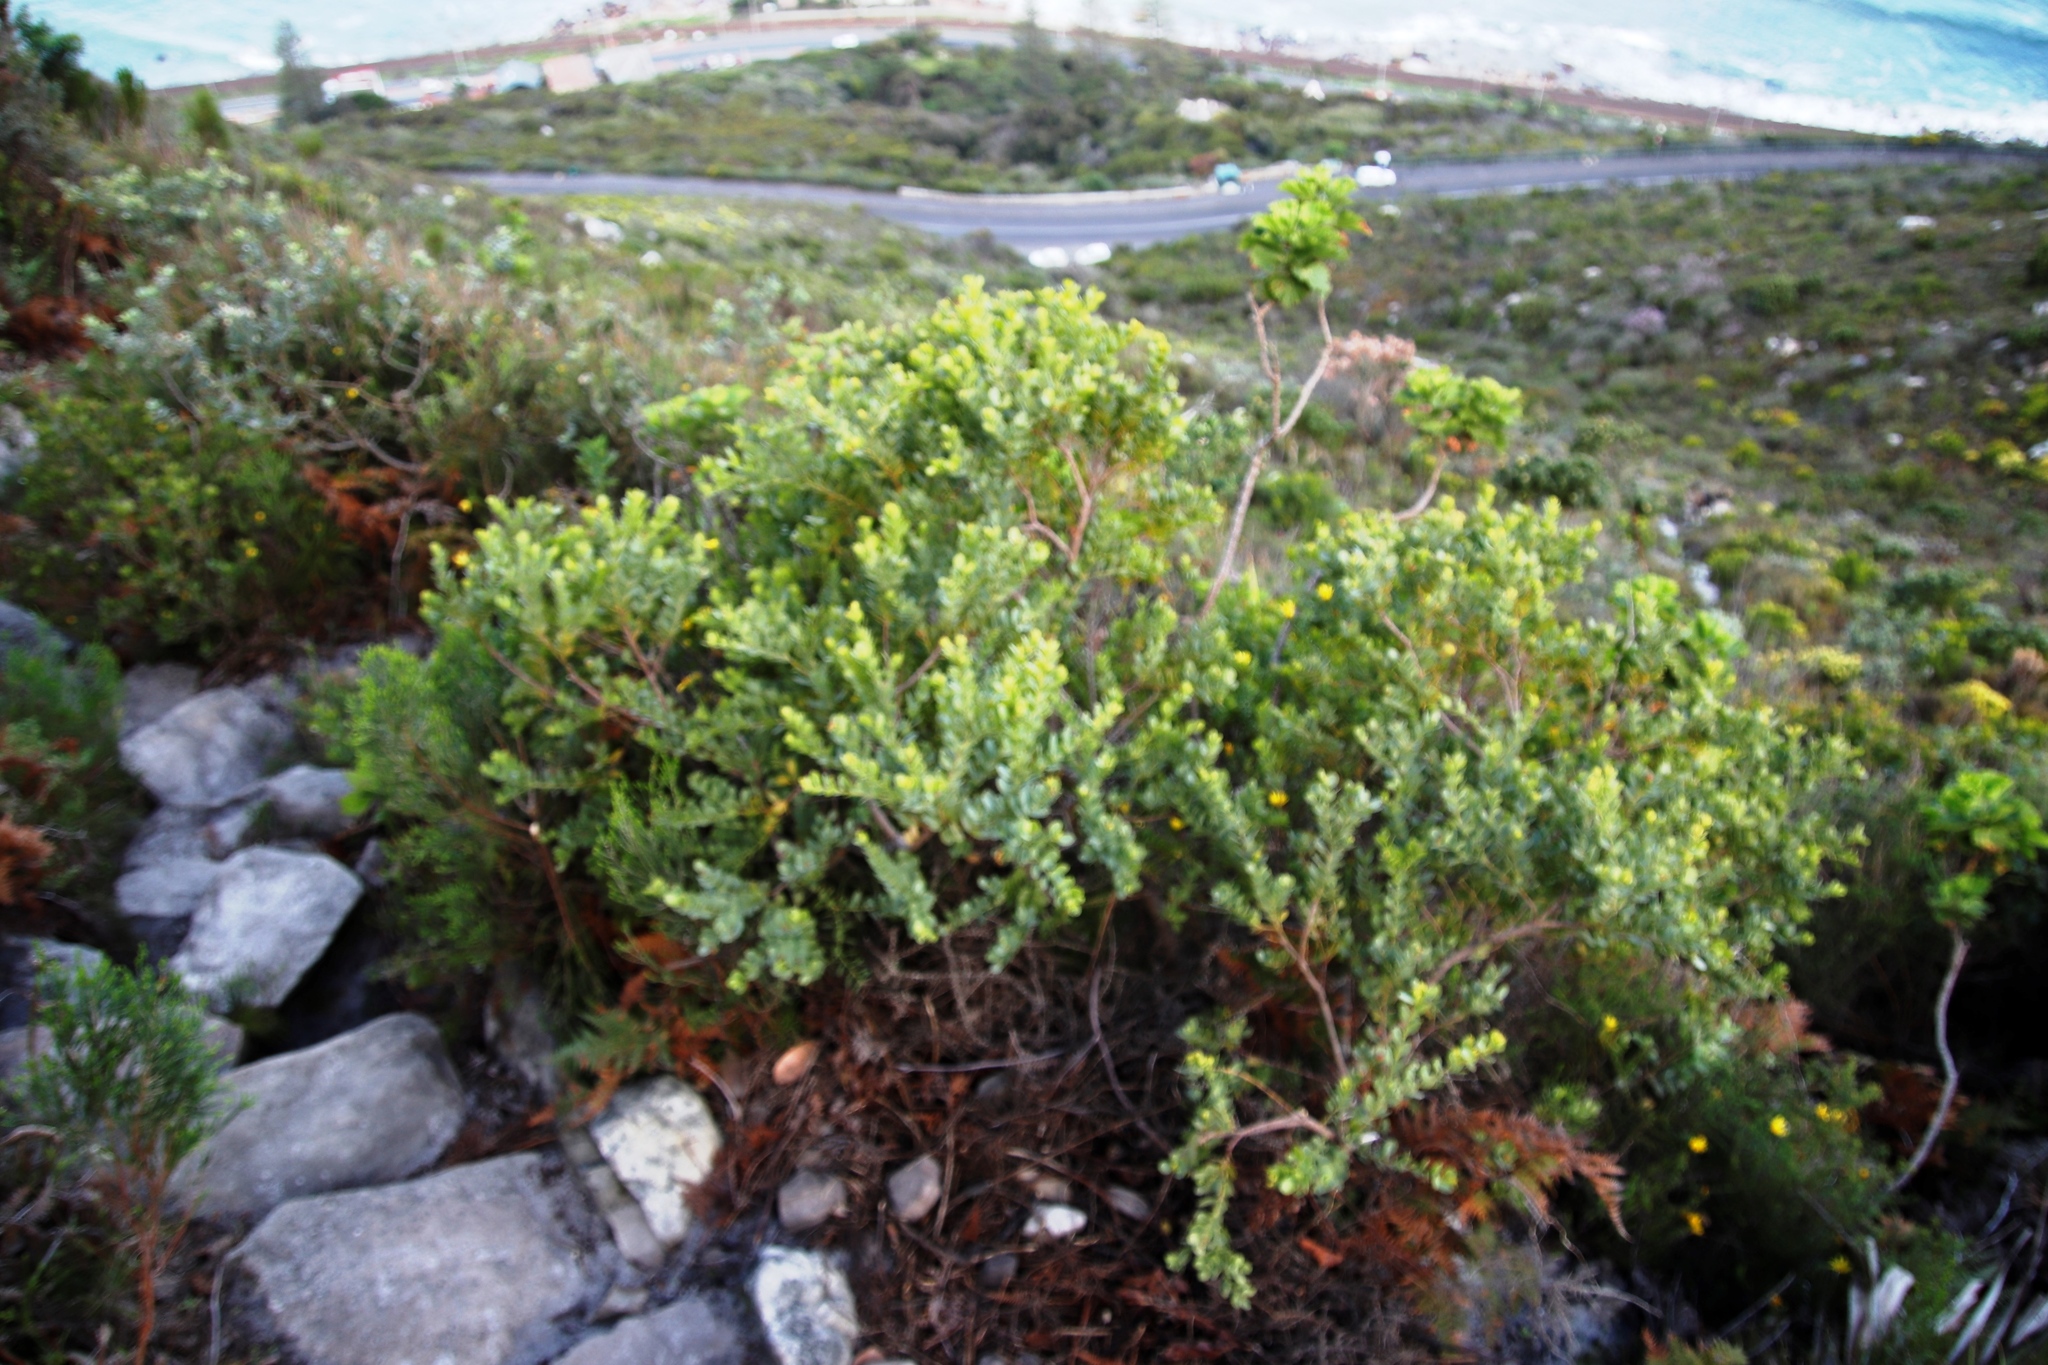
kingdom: Plantae
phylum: Tracheophyta
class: Magnoliopsida
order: Santalales
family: Santalaceae
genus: Osyris
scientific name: Osyris compressa
